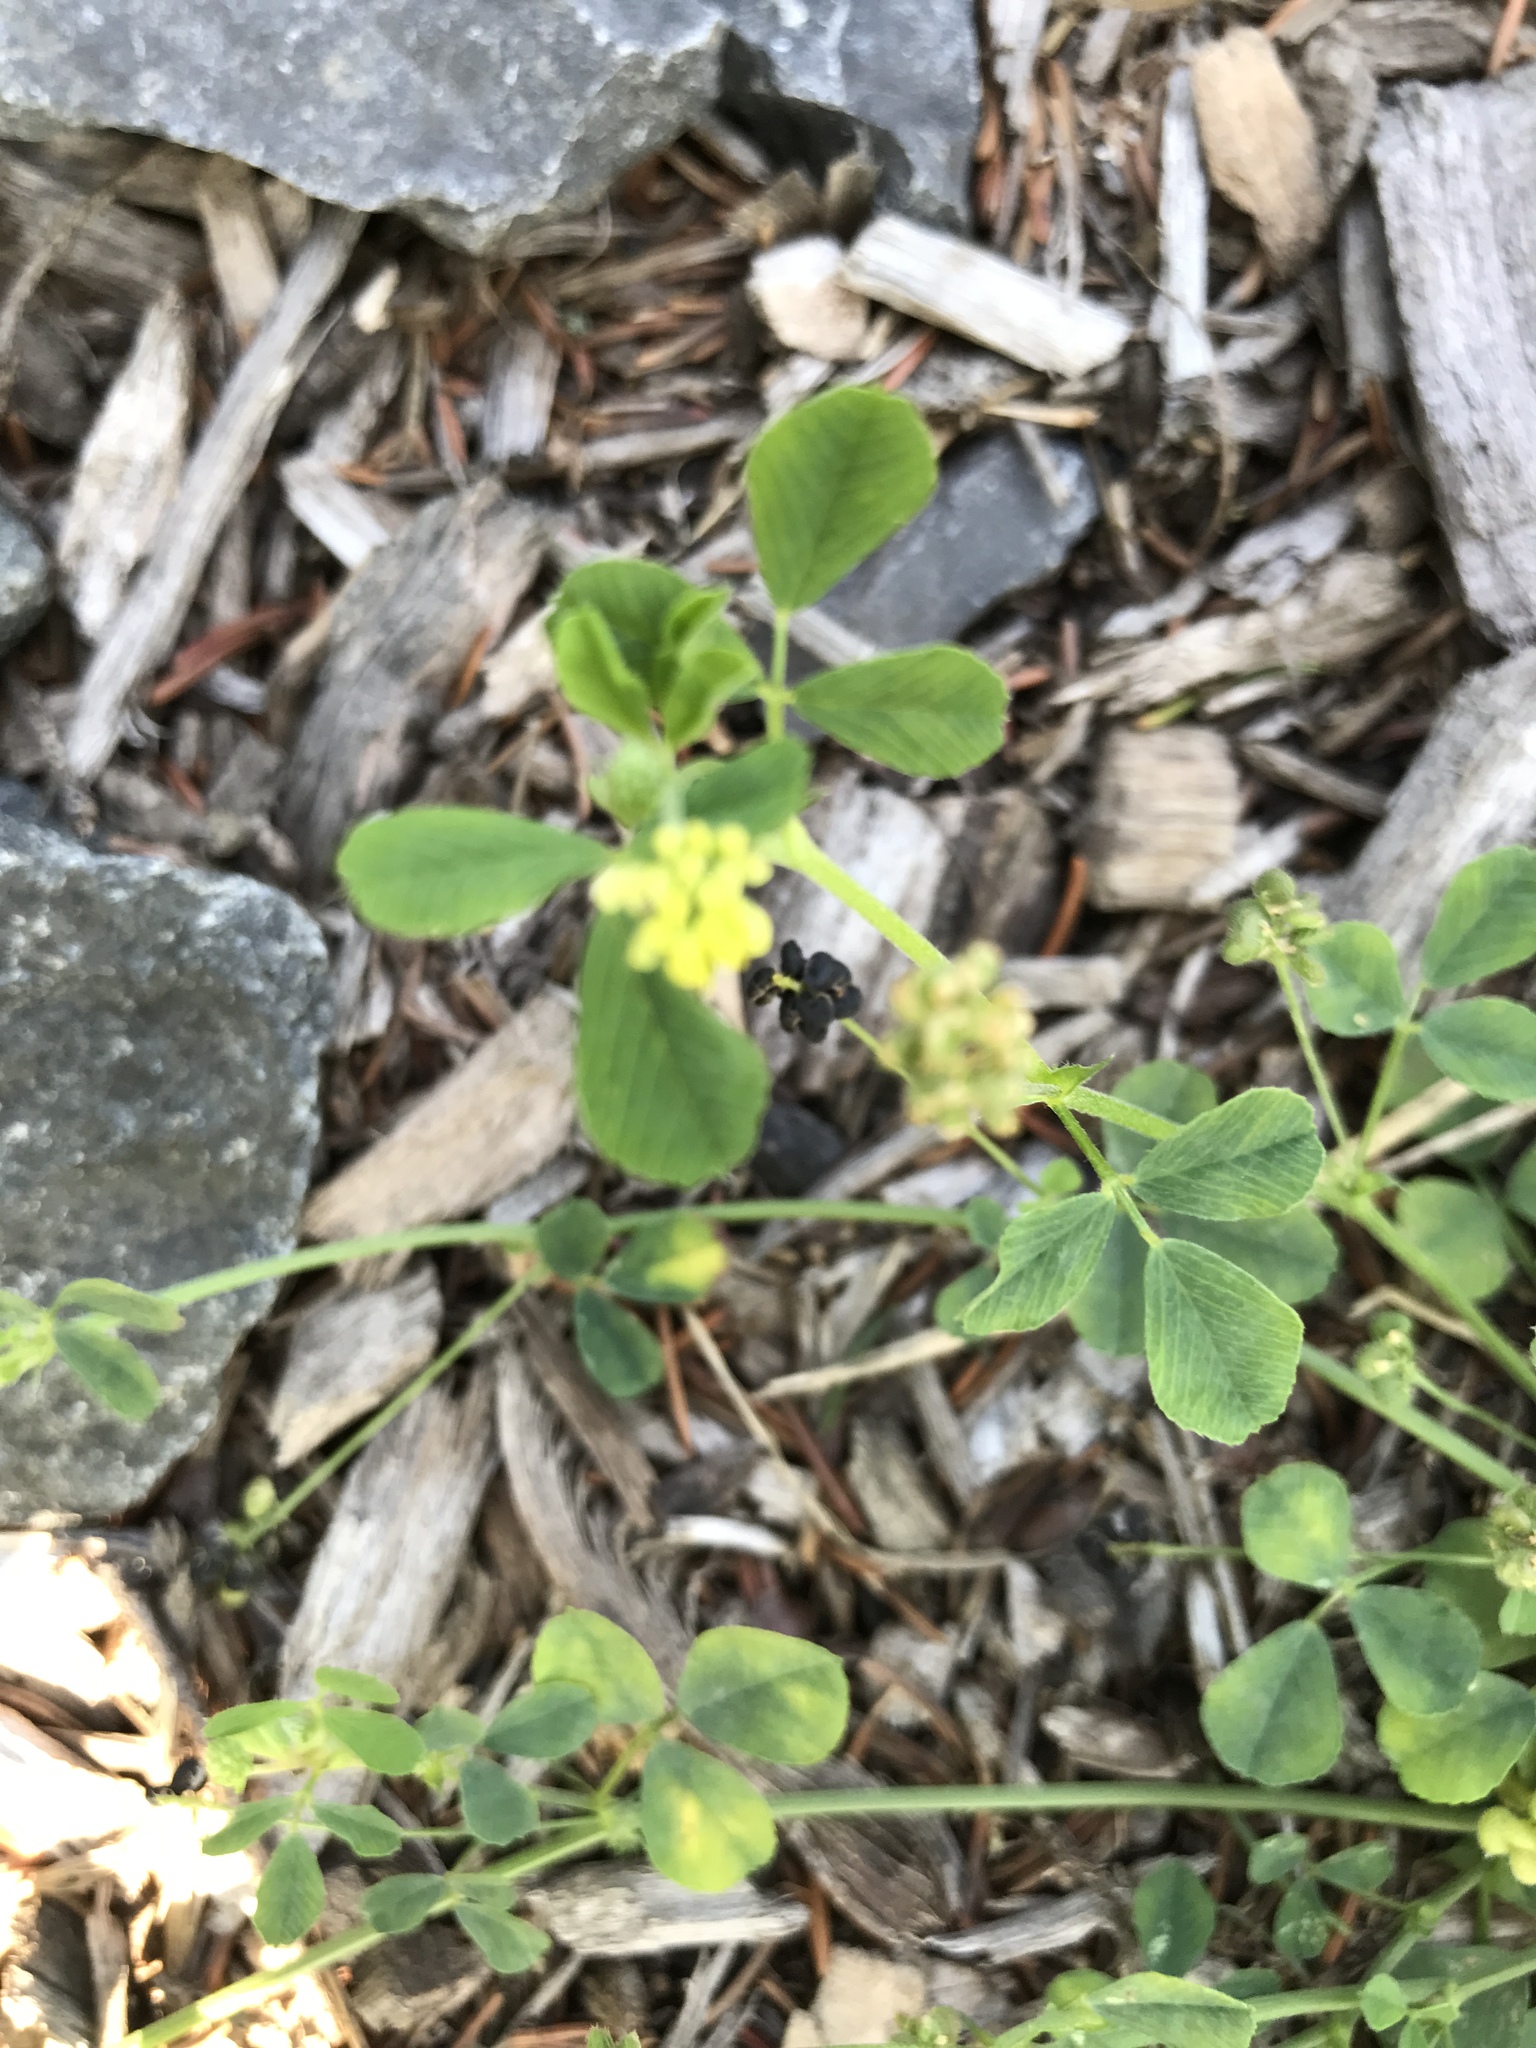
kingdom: Plantae
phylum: Tracheophyta
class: Magnoliopsida
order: Fabales
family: Fabaceae
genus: Medicago
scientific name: Medicago lupulina
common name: Black medick
